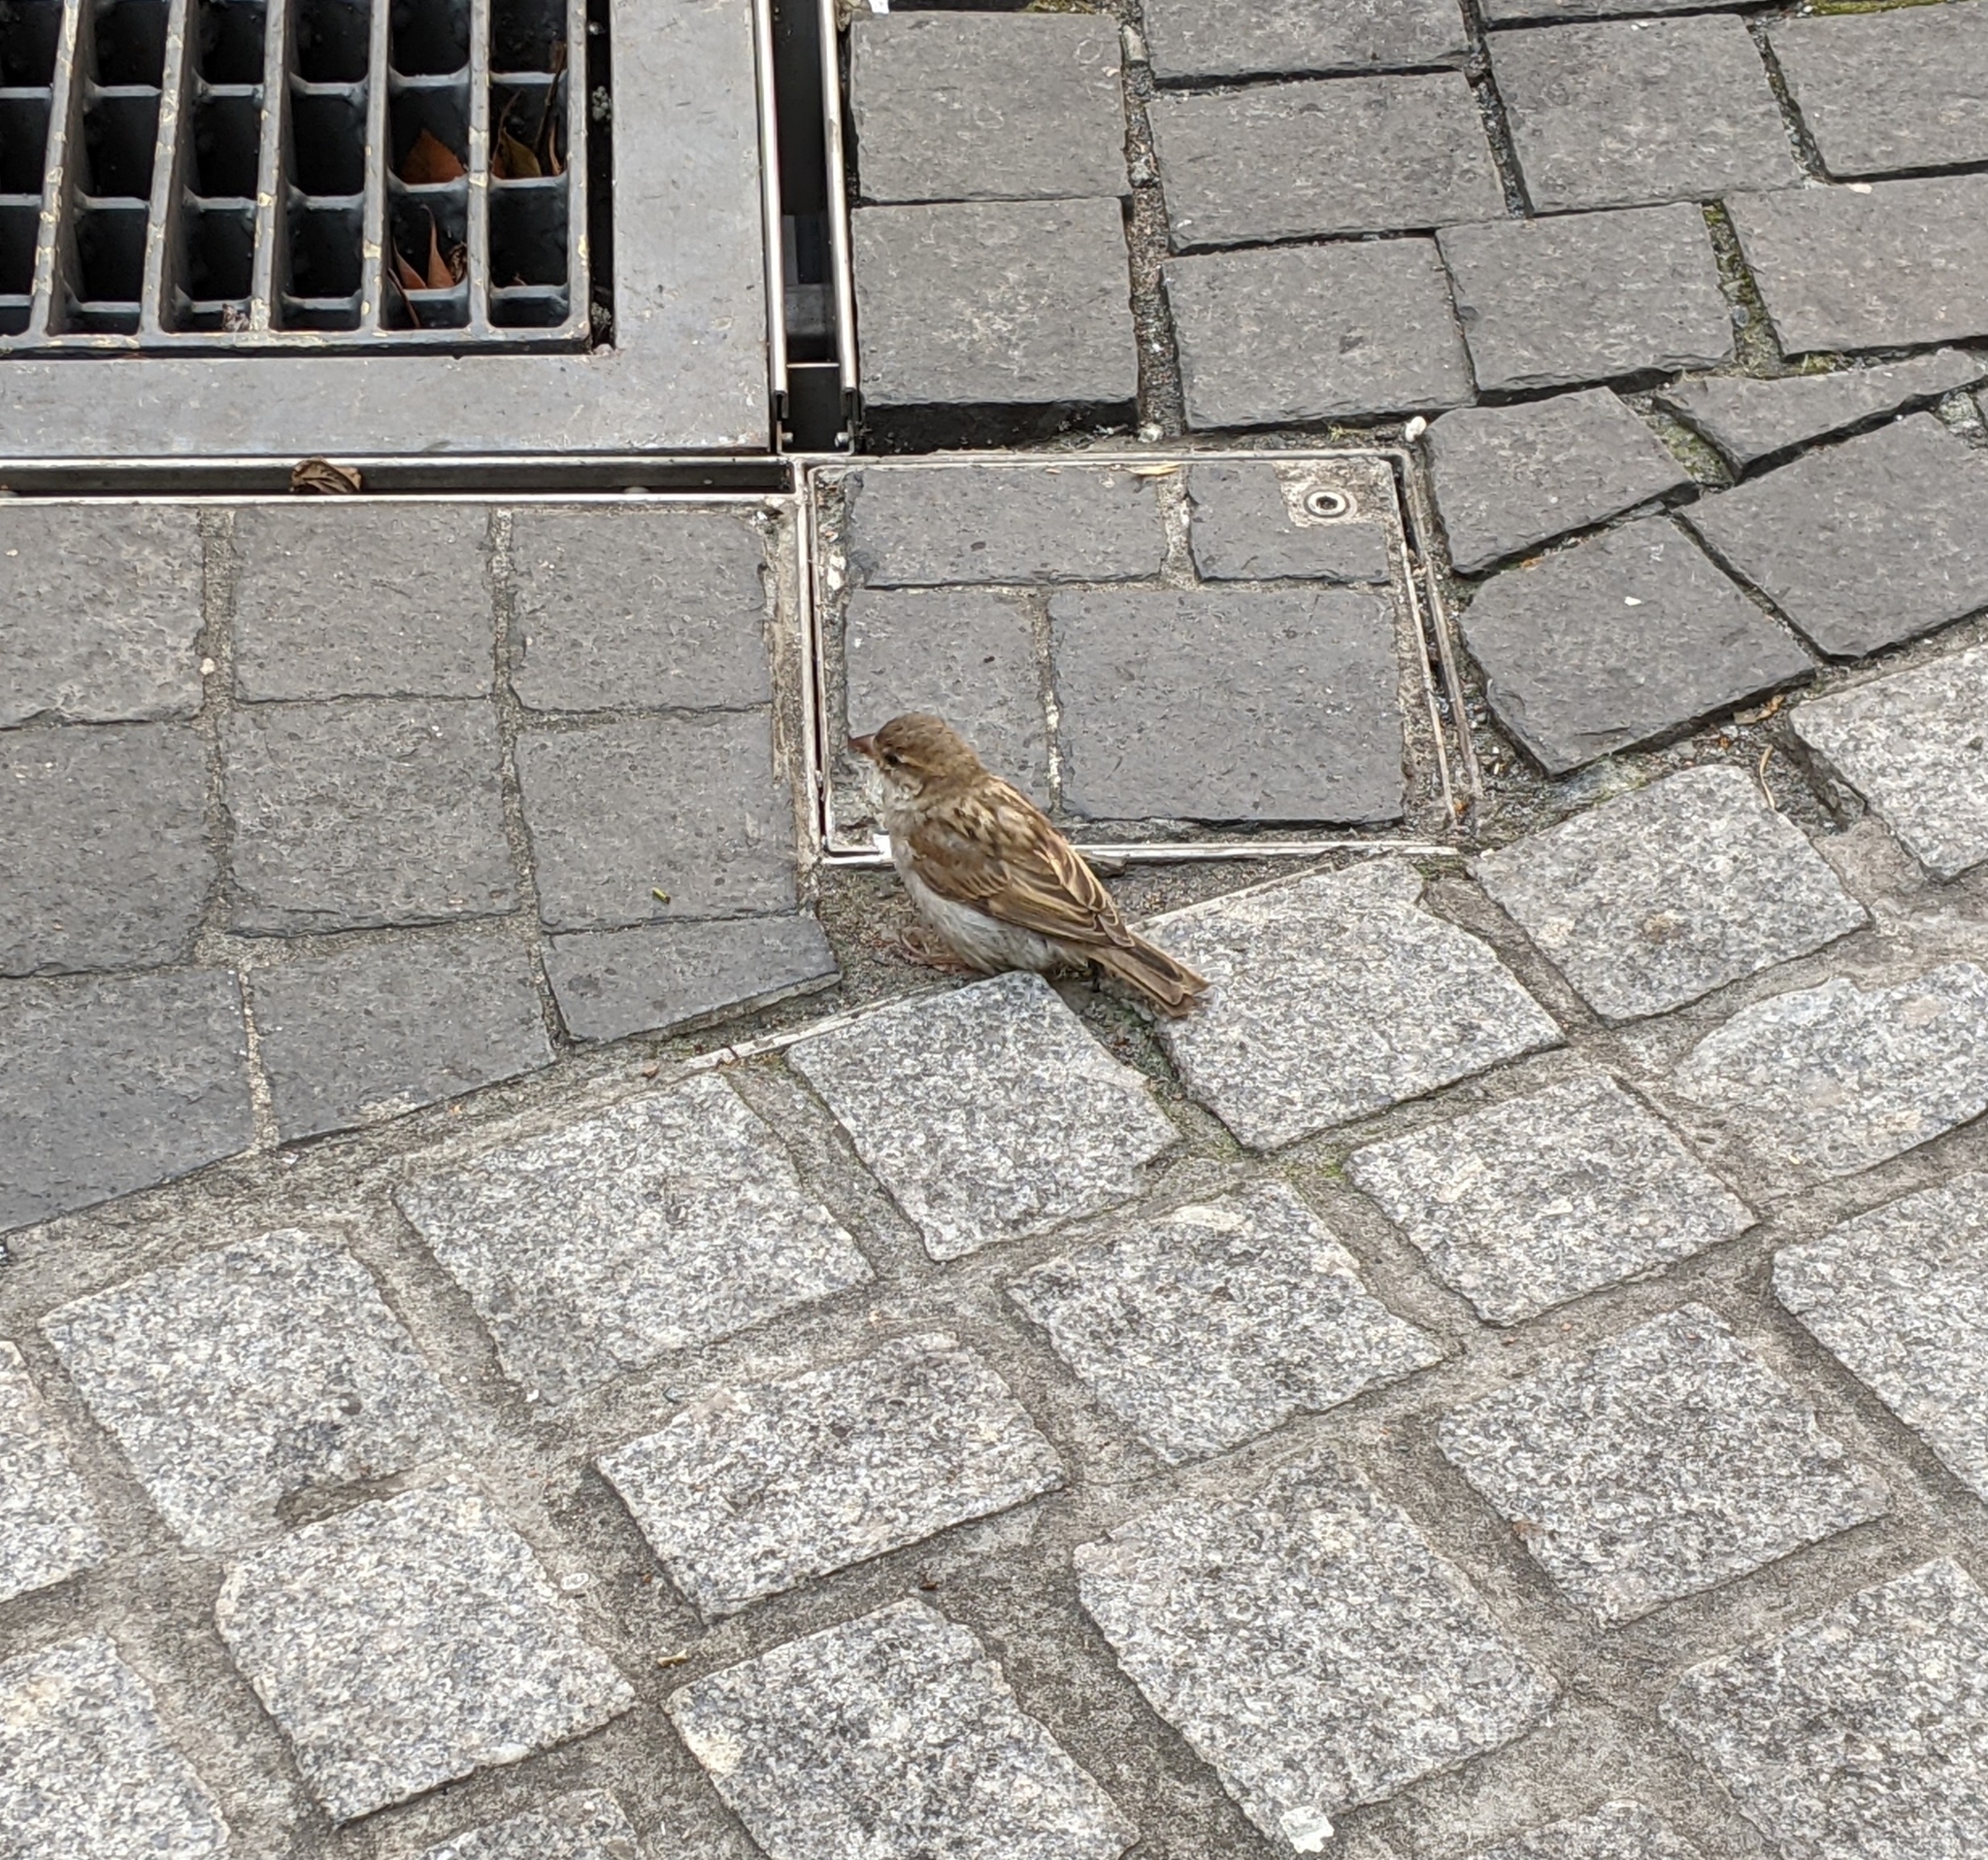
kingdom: Animalia
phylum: Chordata
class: Aves
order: Passeriformes
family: Passeridae
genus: Passer
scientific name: Passer domesticus
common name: House sparrow
